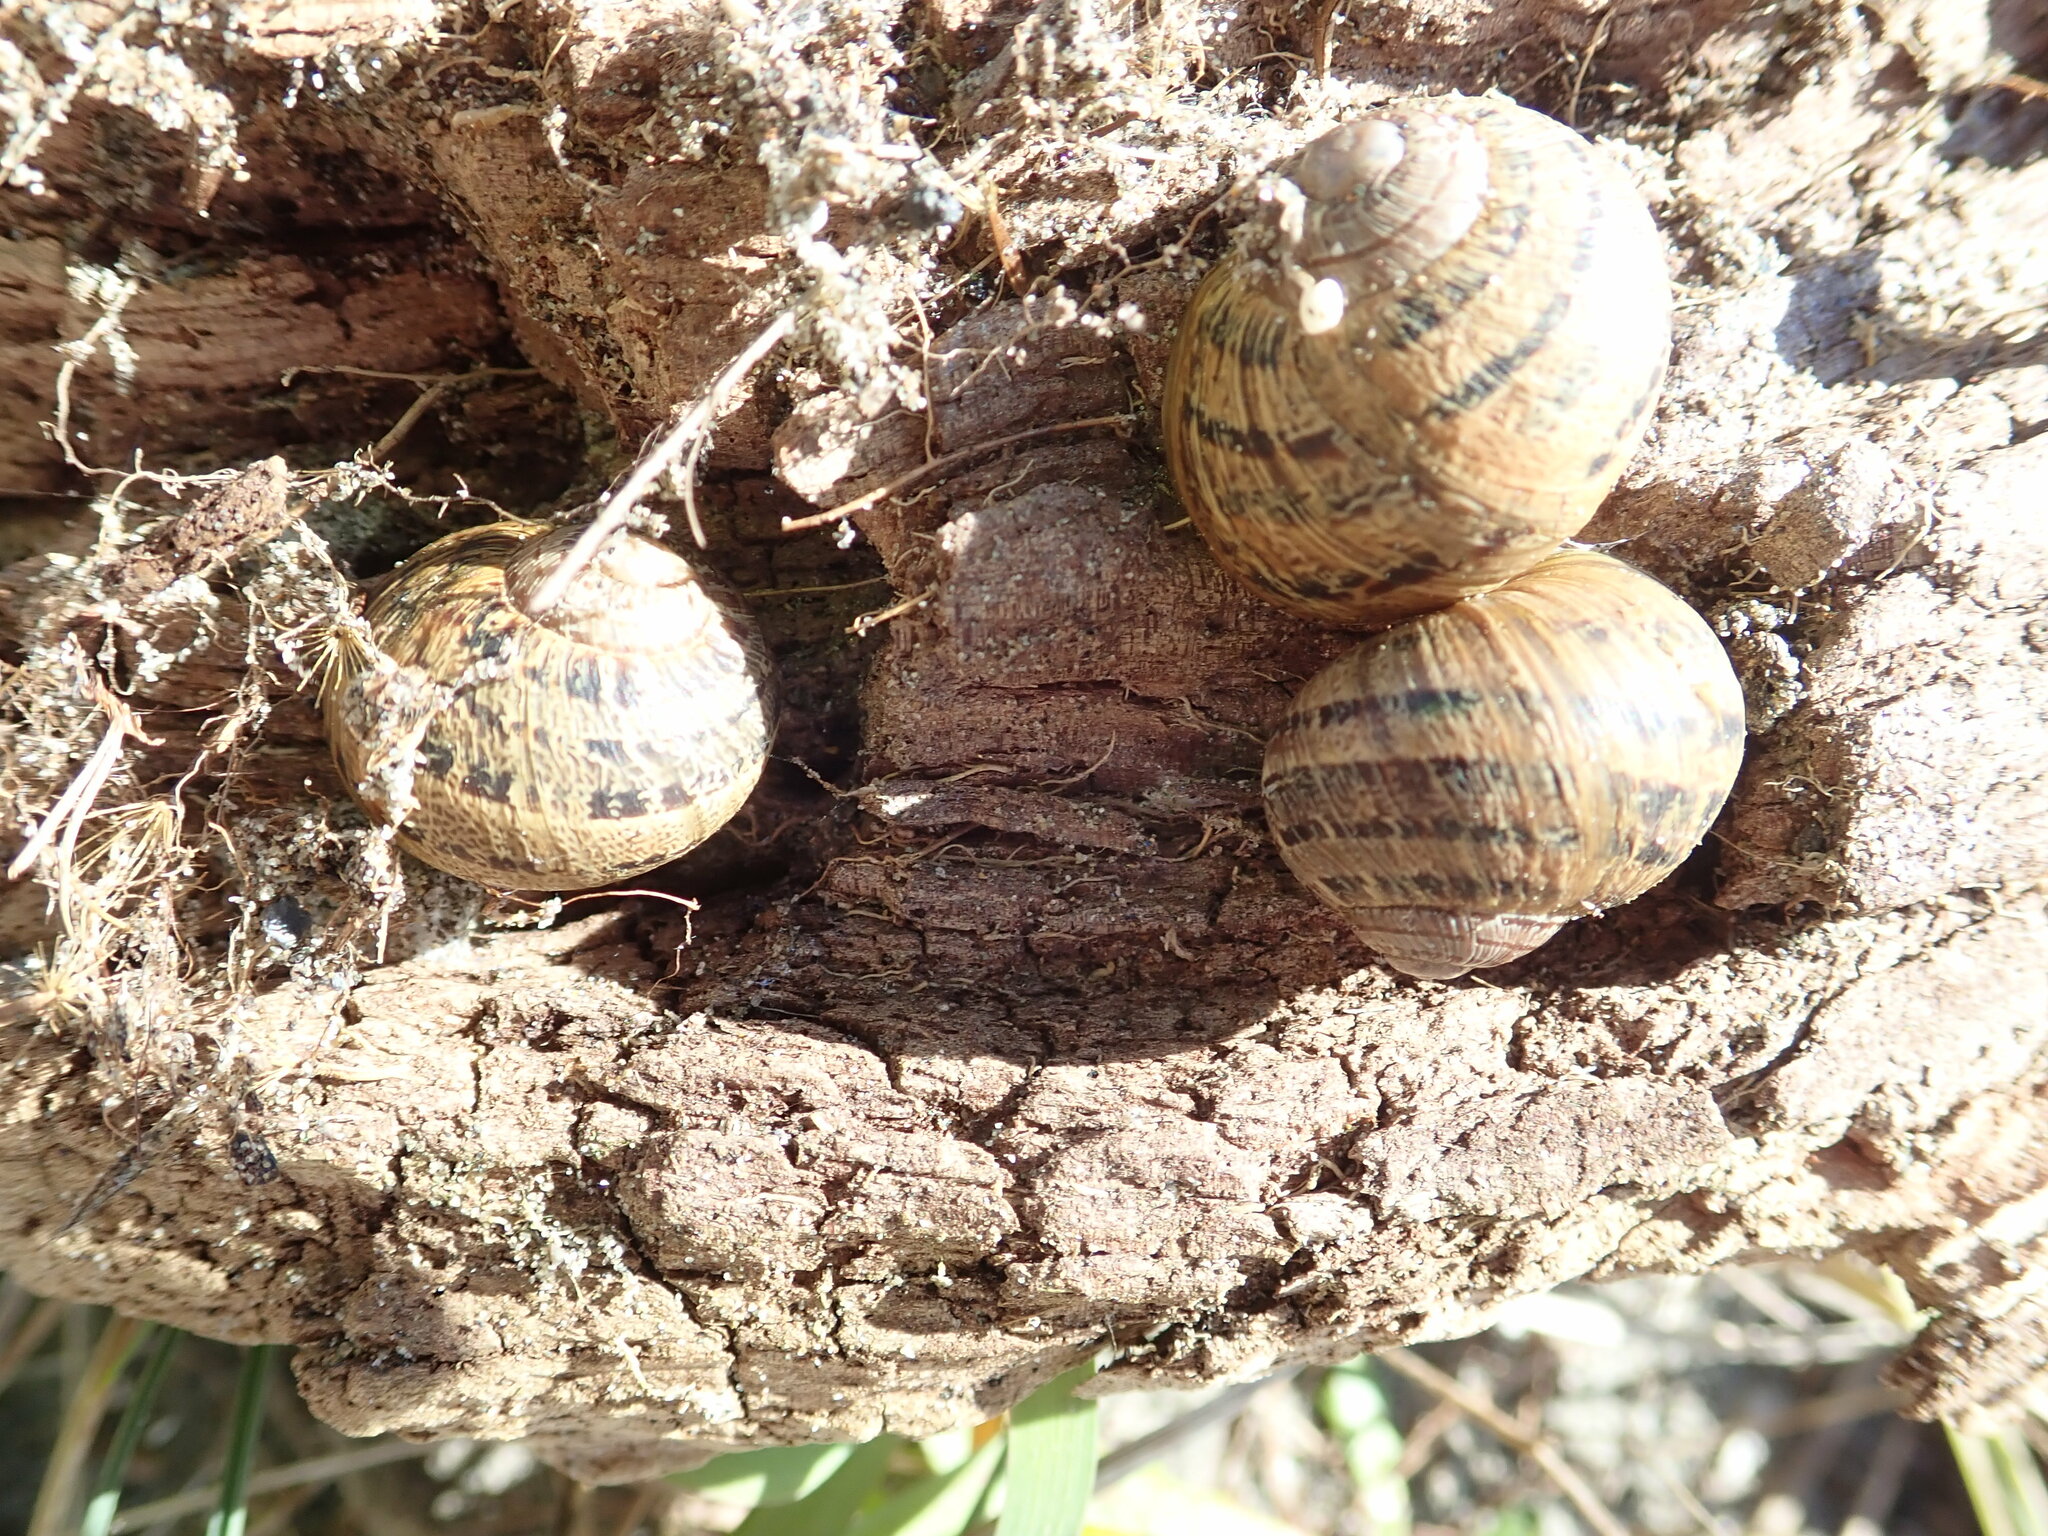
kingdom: Animalia
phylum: Mollusca
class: Gastropoda
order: Stylommatophora
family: Helicidae
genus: Cornu
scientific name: Cornu aspersum
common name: Brown garden snail
